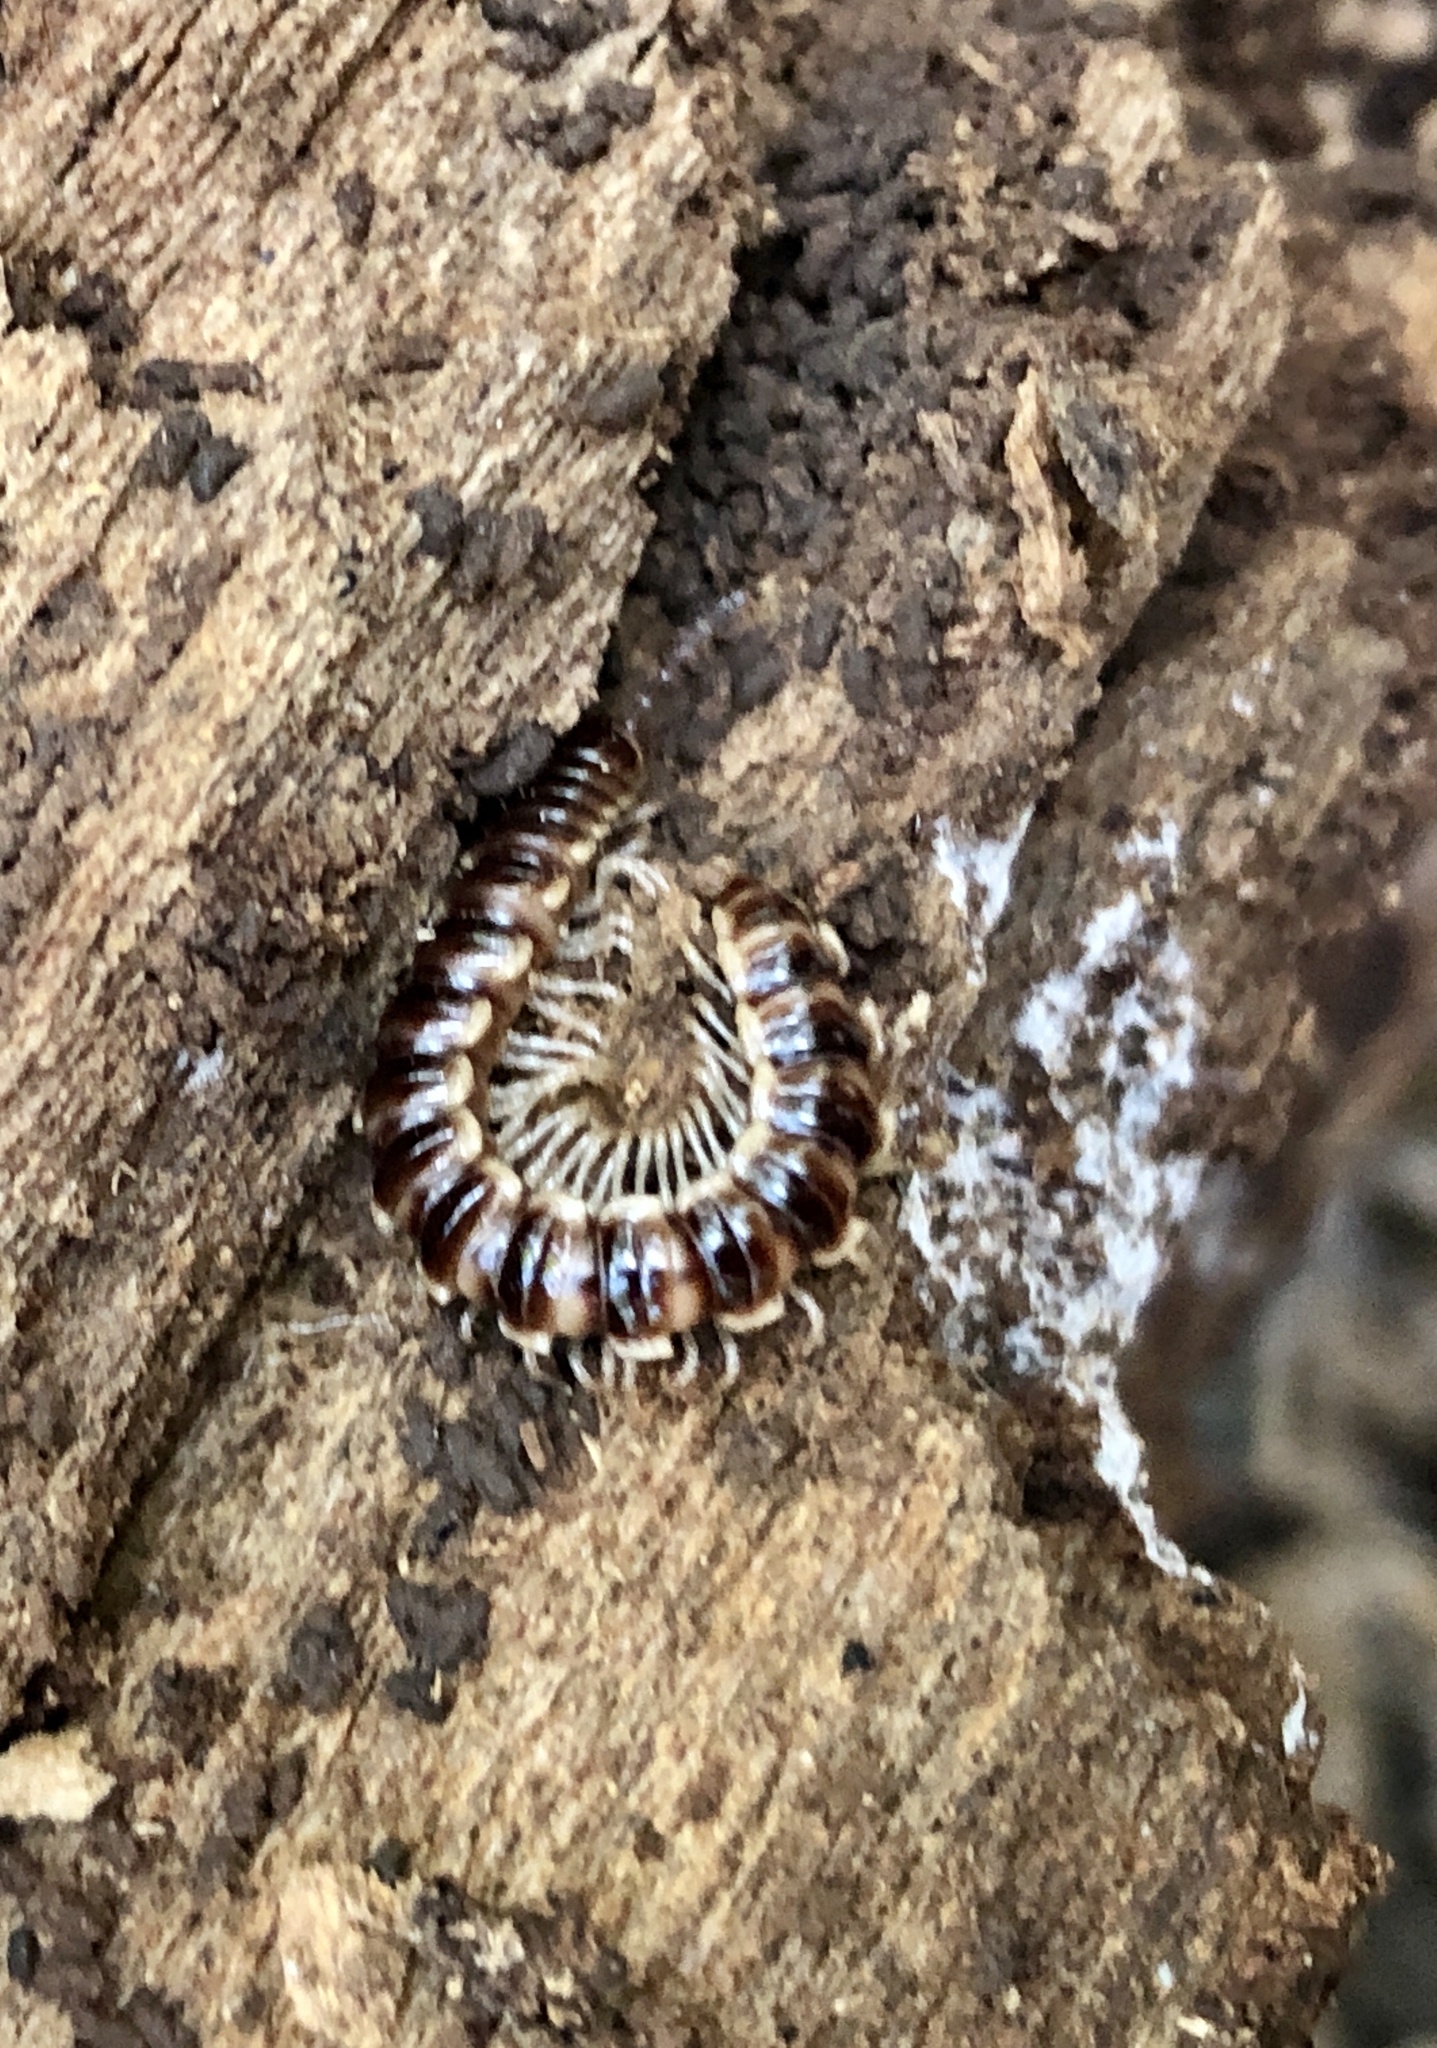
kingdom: Animalia
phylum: Arthropoda
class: Diplopoda
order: Polydesmida
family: Paradoxosomatidae
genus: Oxidus
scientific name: Oxidus gracilis
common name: Greenhouse millipede
